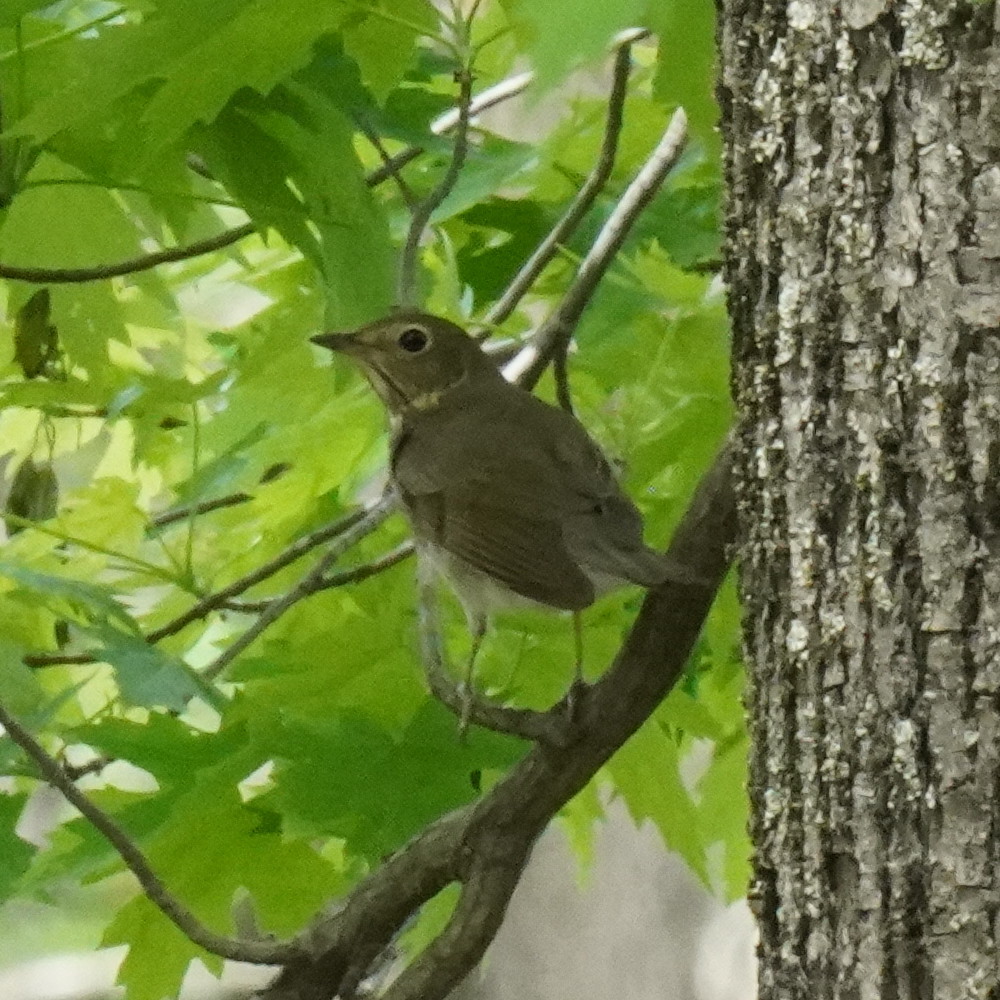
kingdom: Animalia
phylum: Chordata
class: Aves
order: Passeriformes
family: Turdidae
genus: Catharus
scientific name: Catharus ustulatus
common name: Swainson's thrush
